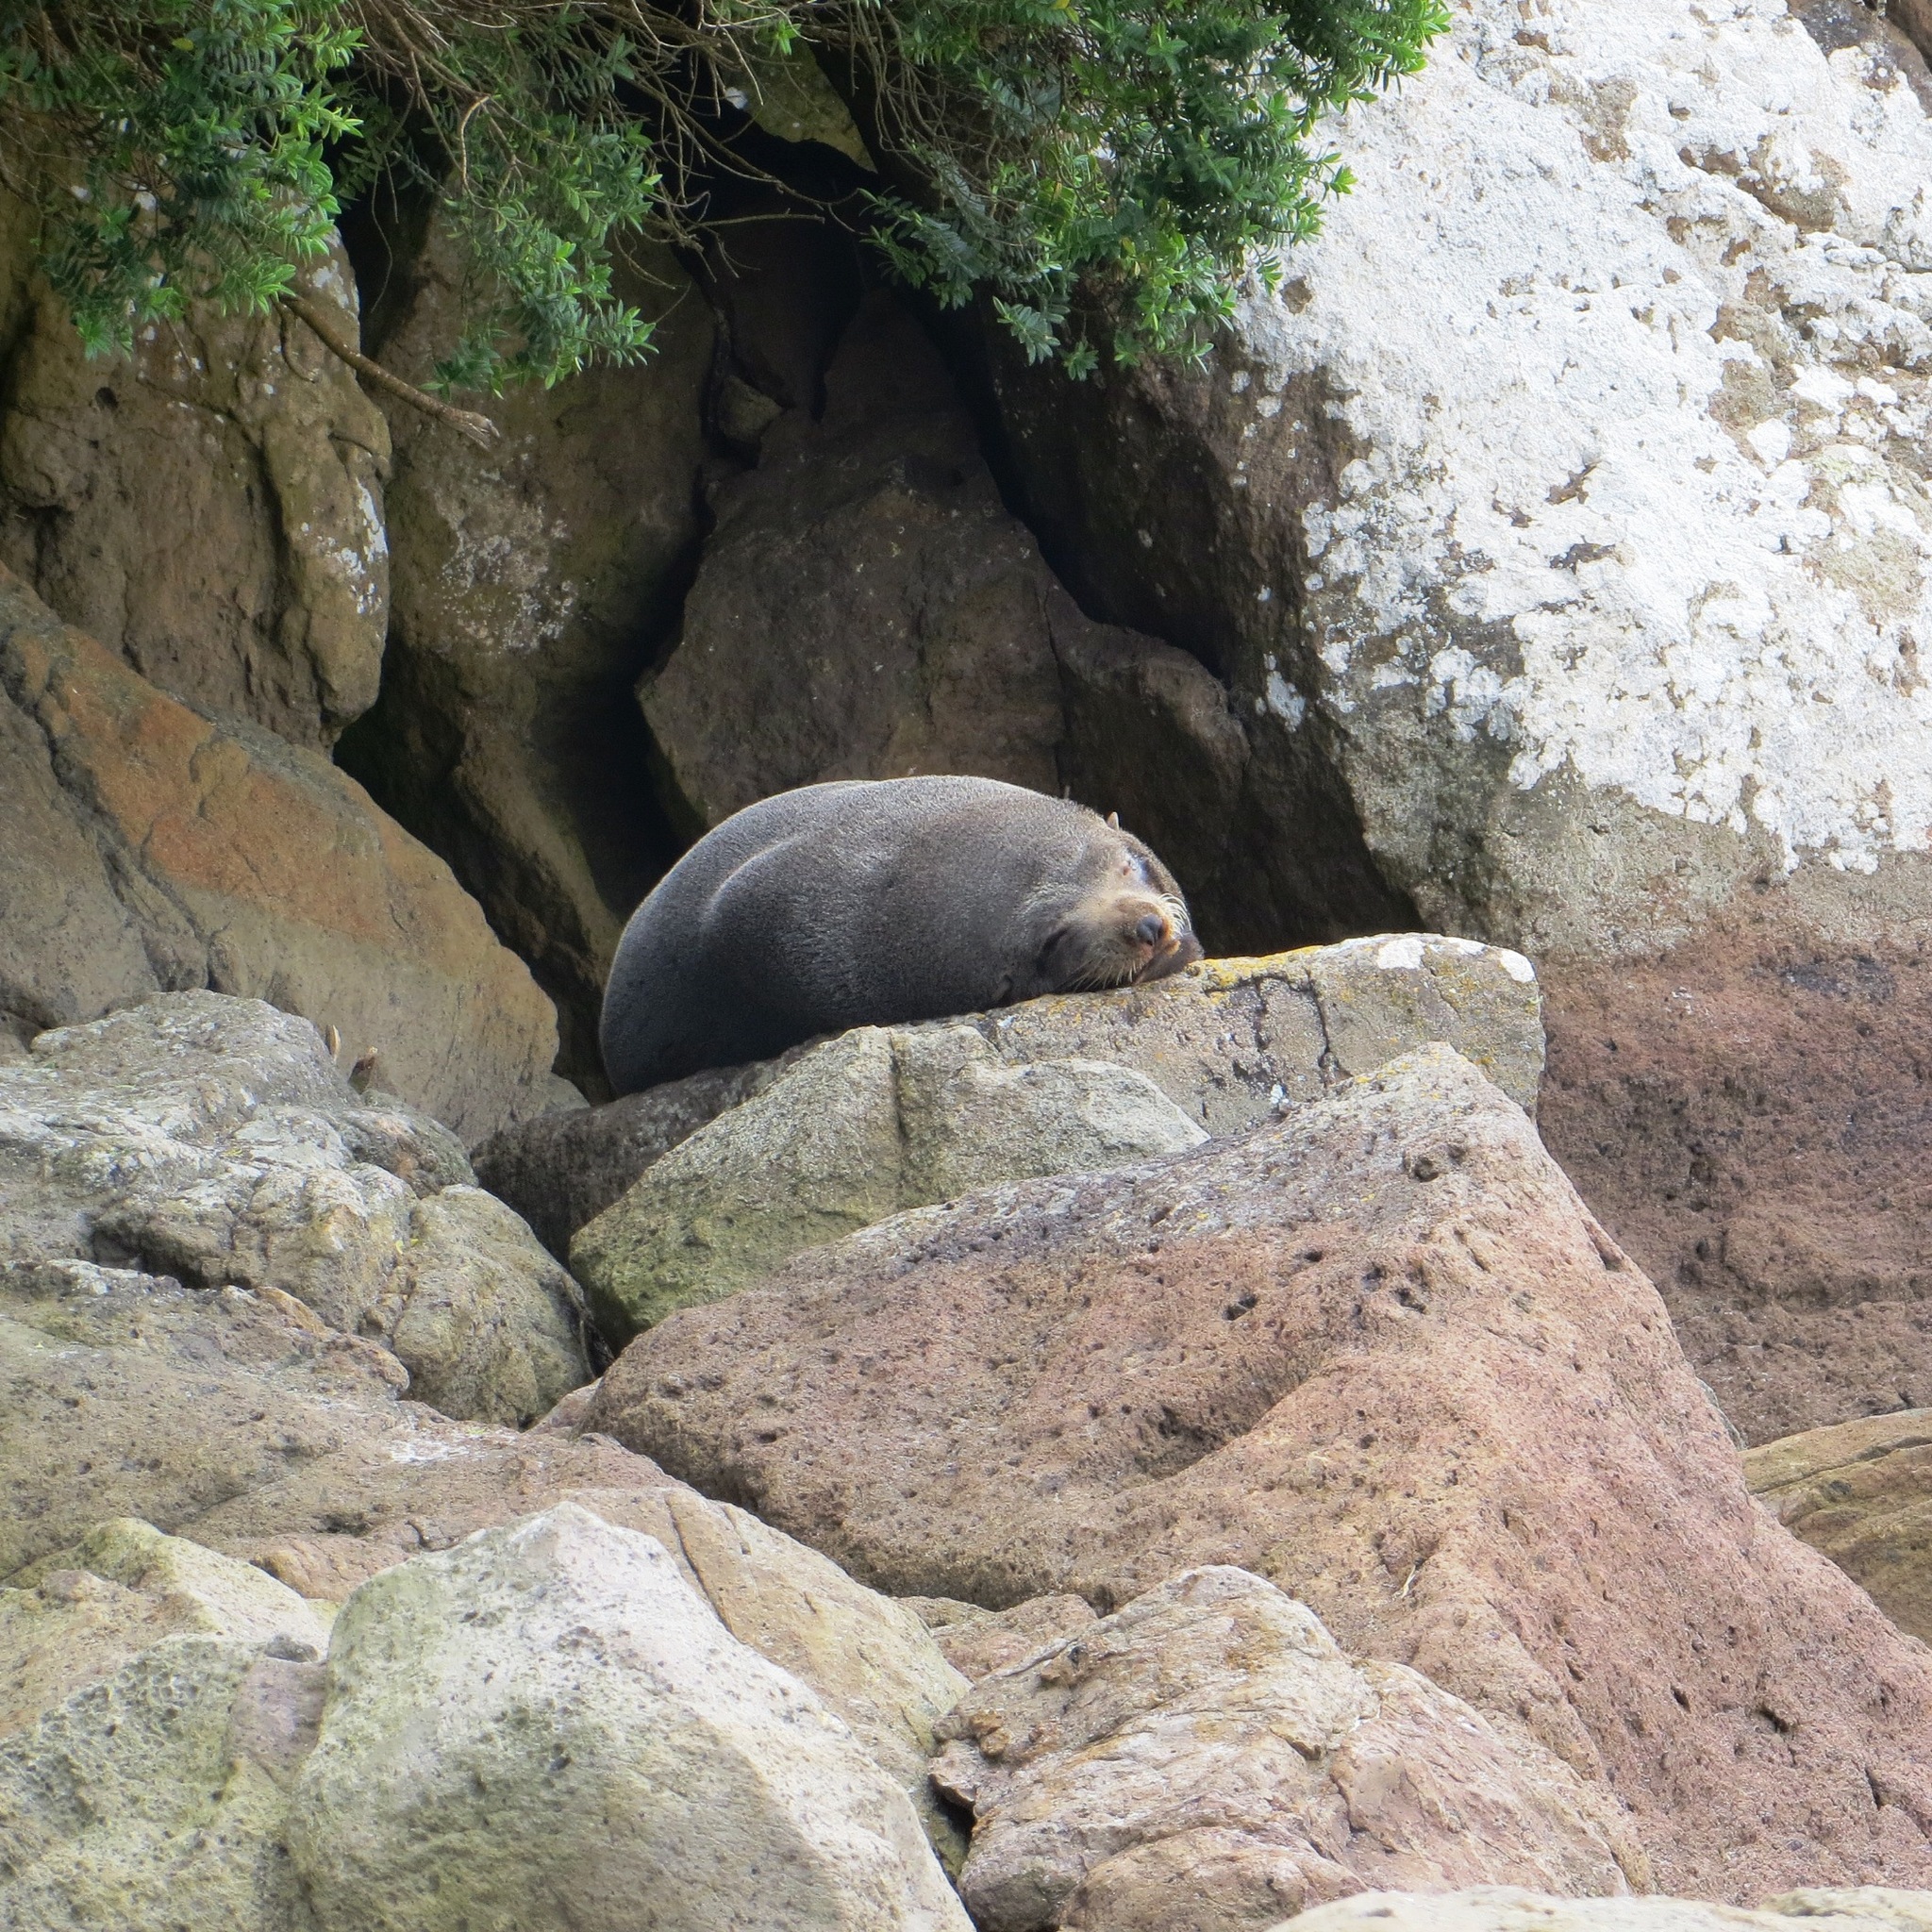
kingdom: Animalia
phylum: Chordata
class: Mammalia
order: Carnivora
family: Otariidae
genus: Arctocephalus
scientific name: Arctocephalus forsteri
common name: New zealand fur seal
